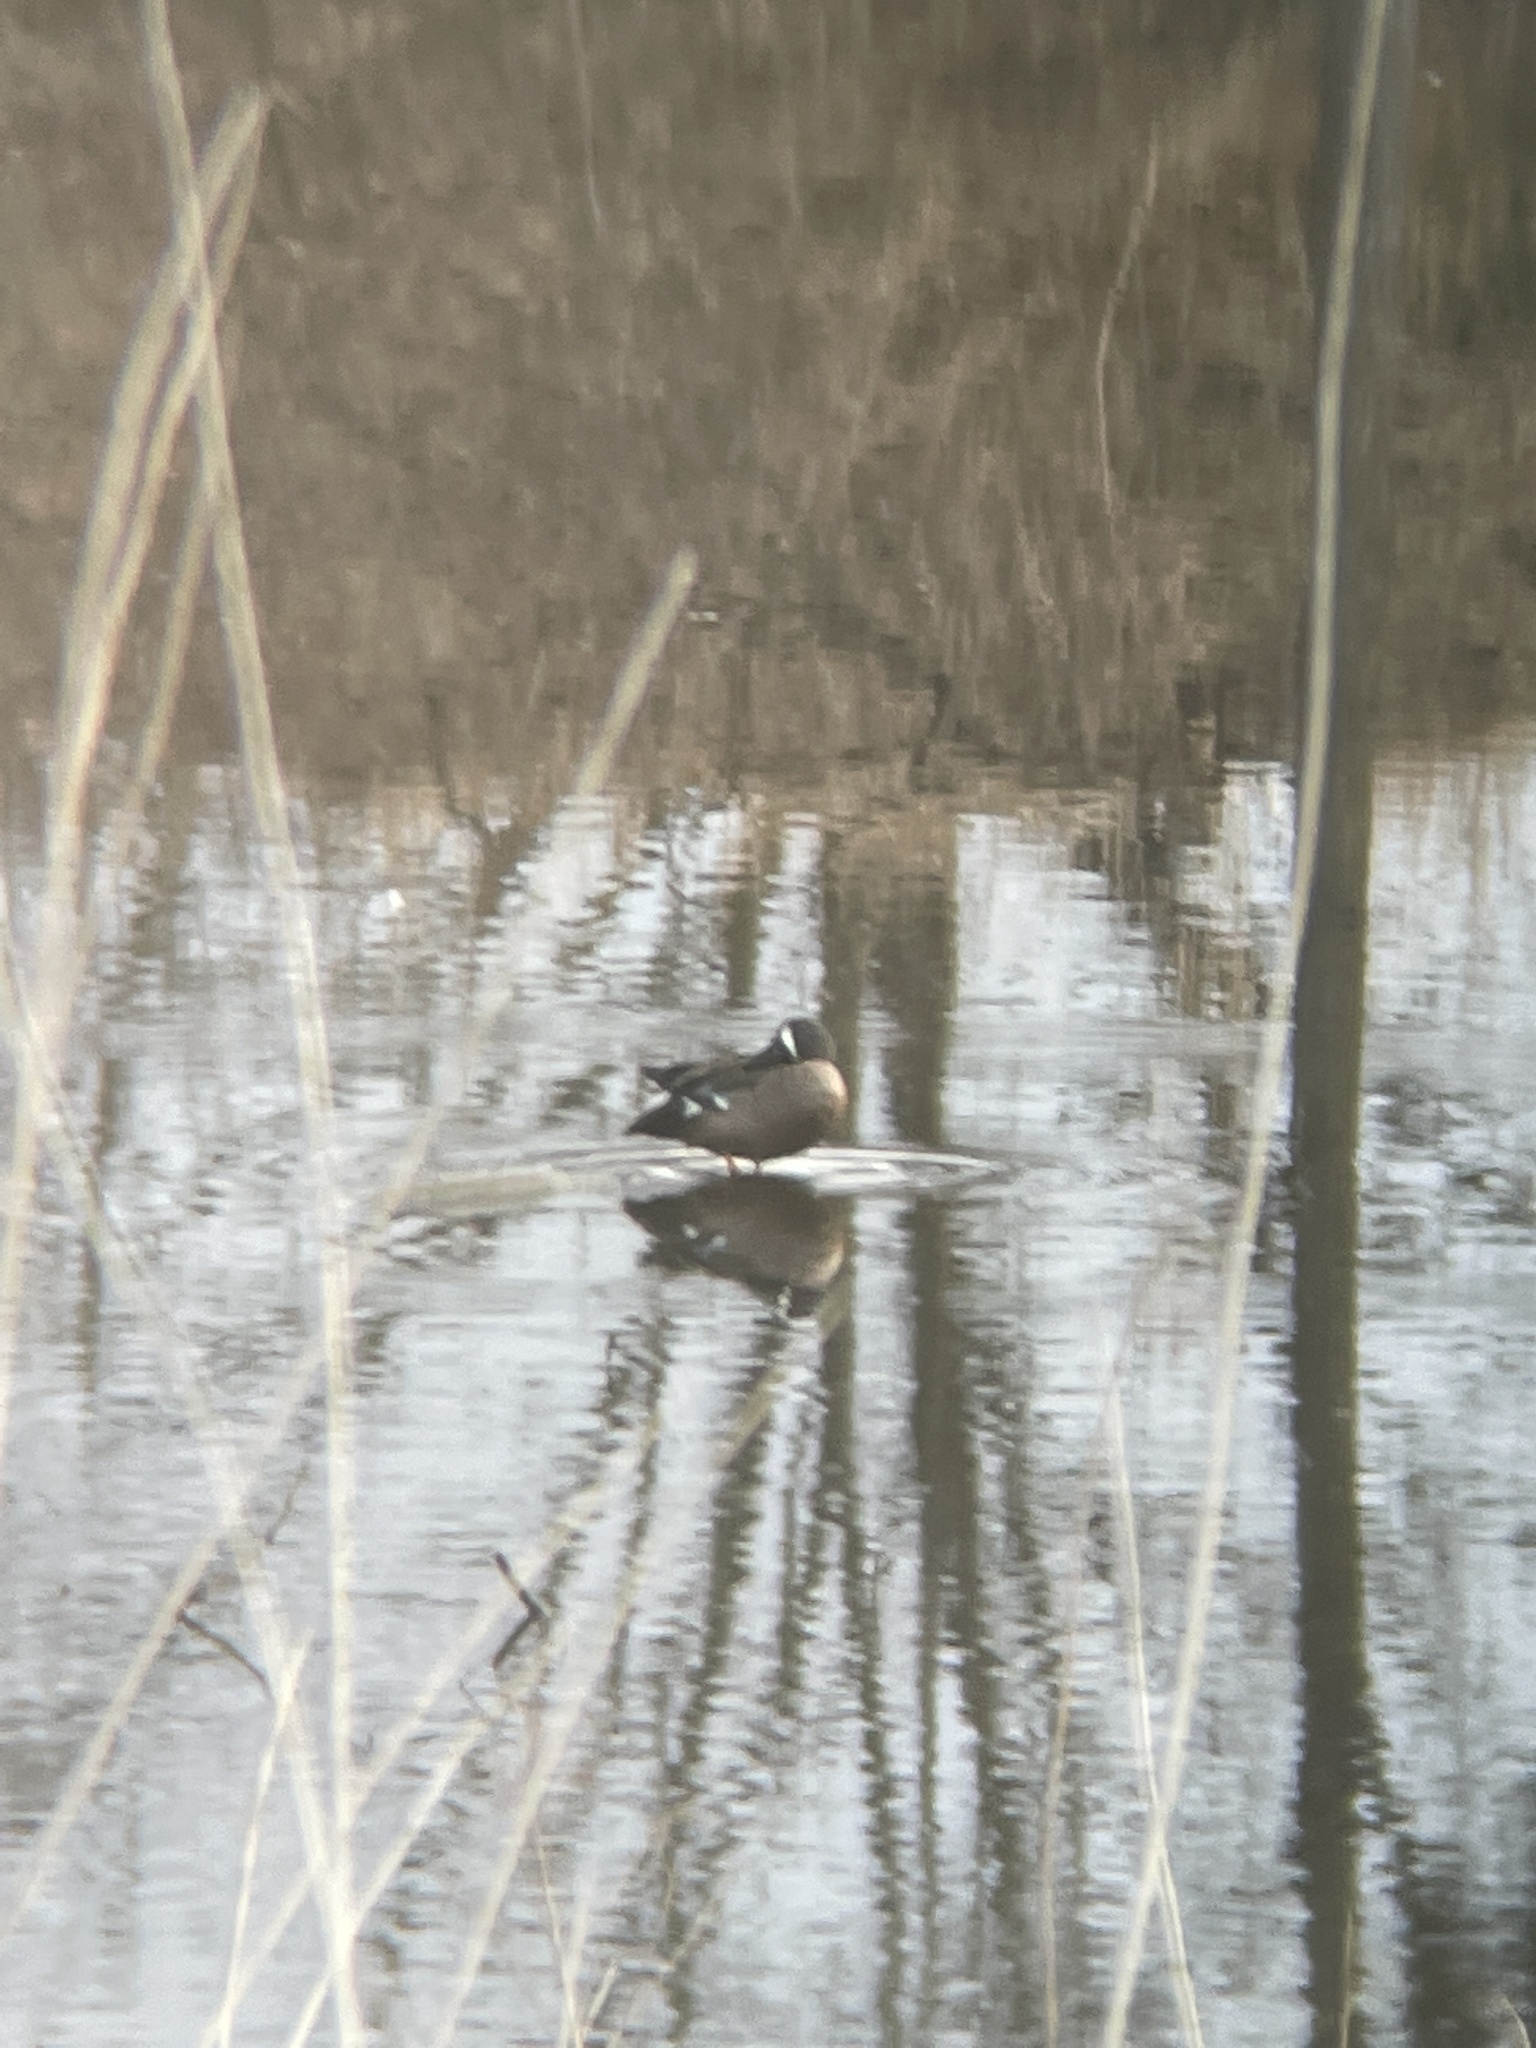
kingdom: Animalia
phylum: Chordata
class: Aves
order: Anseriformes
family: Anatidae
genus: Spatula
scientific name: Spatula discors
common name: Blue-winged teal
